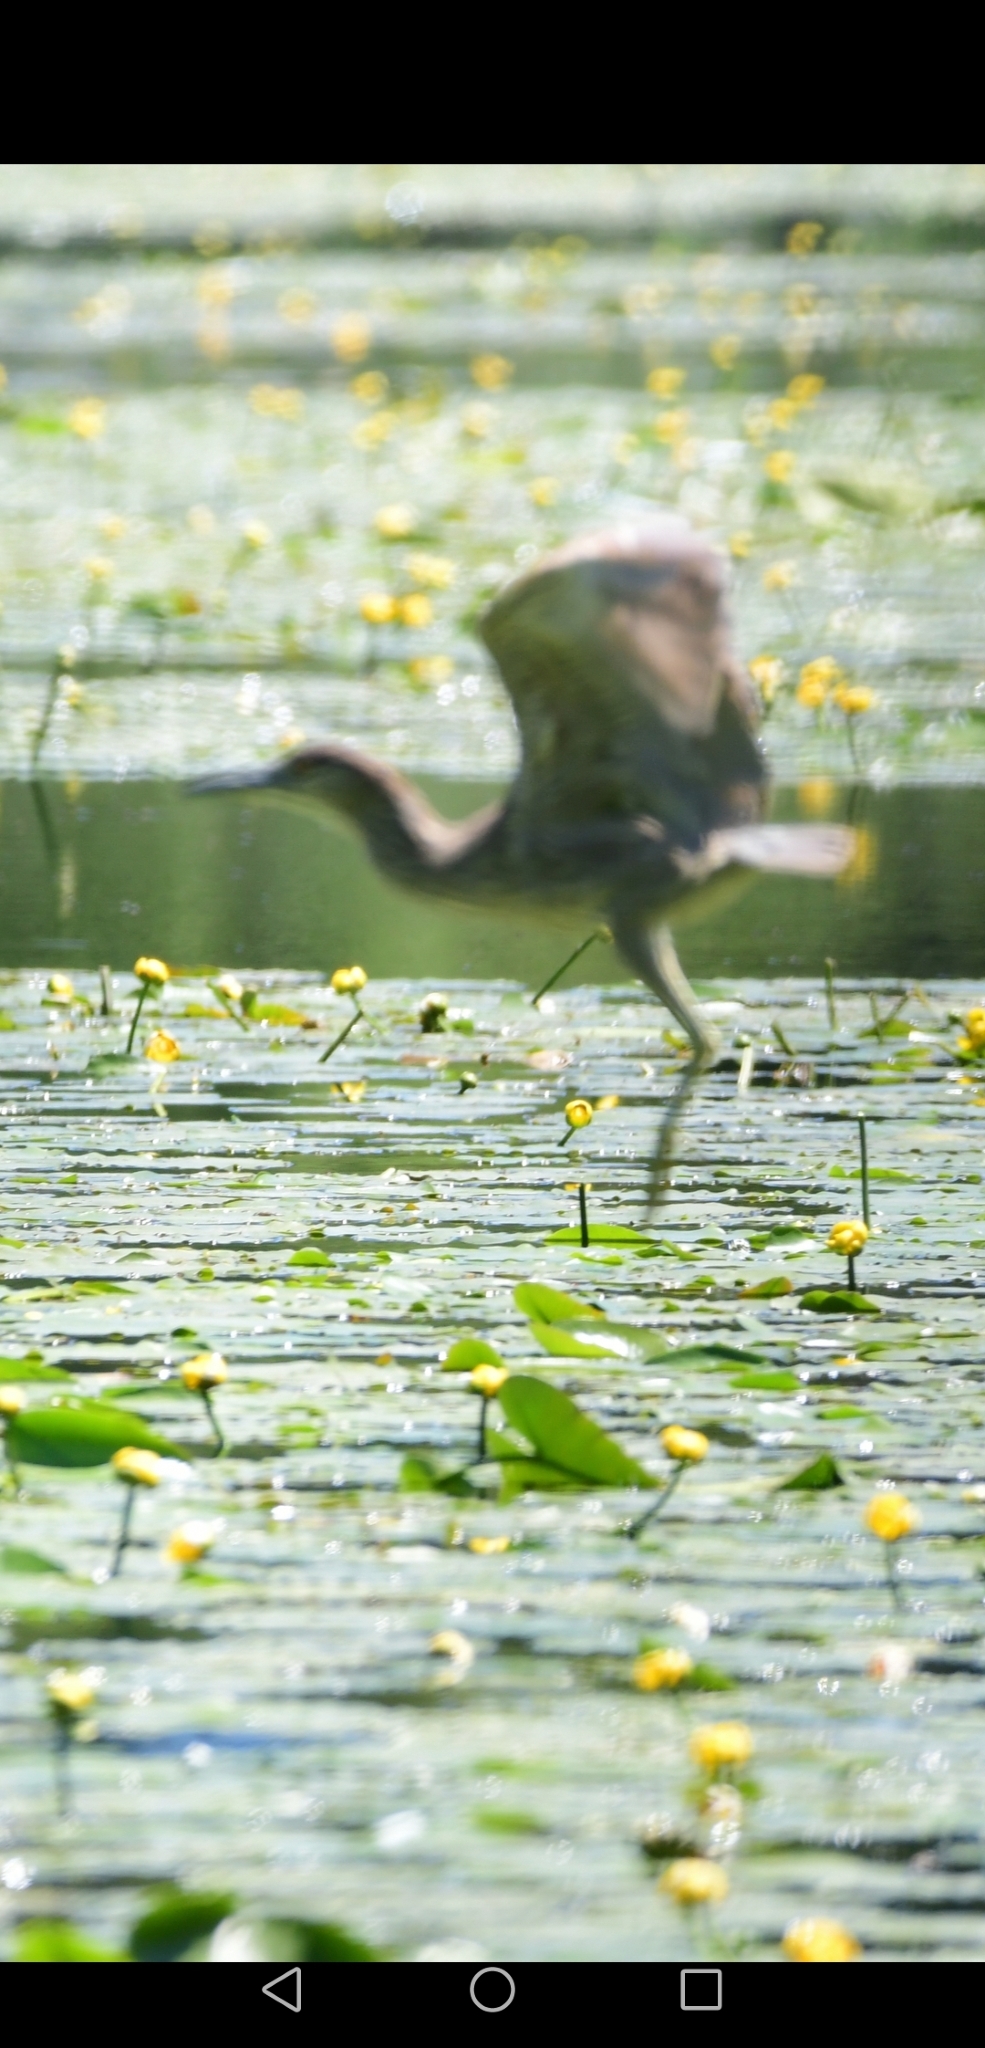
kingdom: Animalia
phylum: Chordata
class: Aves
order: Pelecaniformes
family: Ardeidae
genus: Nycticorax
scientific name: Nycticorax nycticorax
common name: Black-crowned night heron
